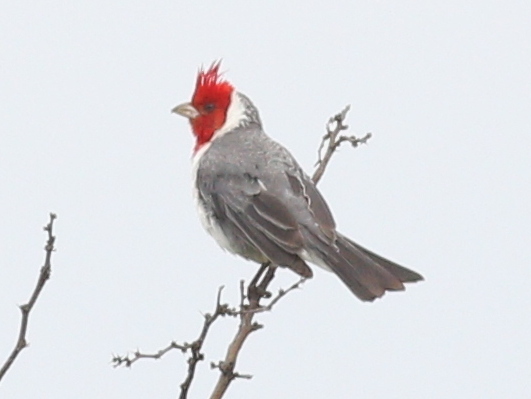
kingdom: Animalia
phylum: Chordata
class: Aves
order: Passeriformes
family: Thraupidae
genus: Paroaria
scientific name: Paroaria coronata
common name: Red-crested cardinal
